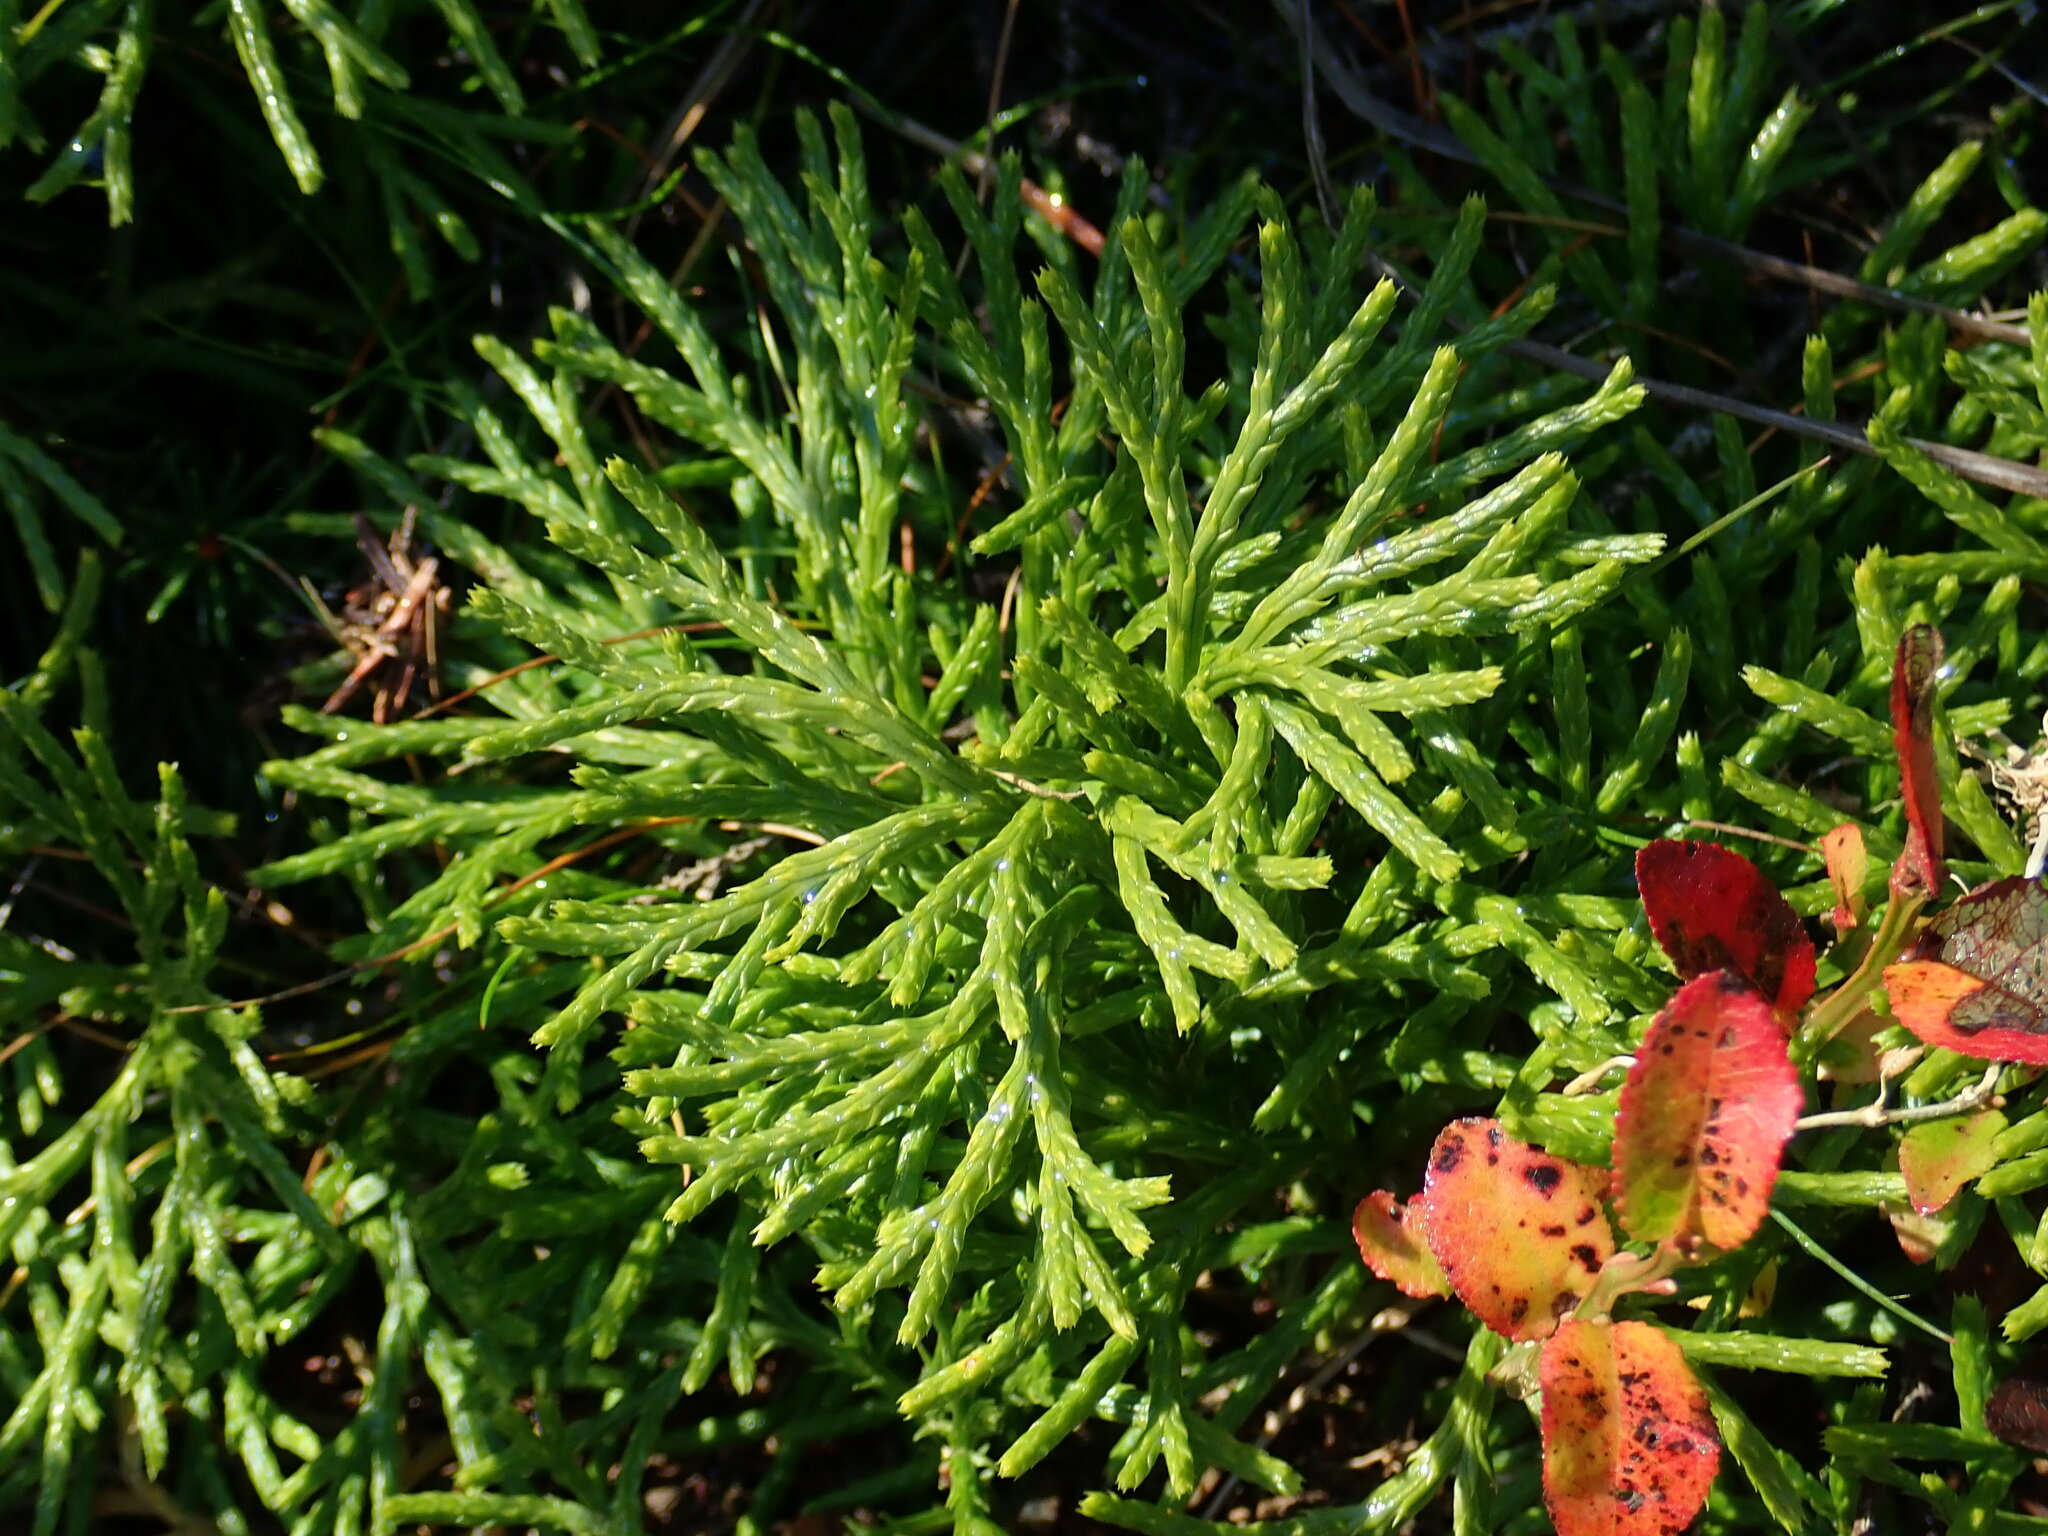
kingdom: Plantae
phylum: Tracheophyta
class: Lycopodiopsida
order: Lycopodiales
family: Lycopodiaceae
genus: Diphasiastrum
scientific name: Diphasiastrum complanatum
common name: Northern running-pine
